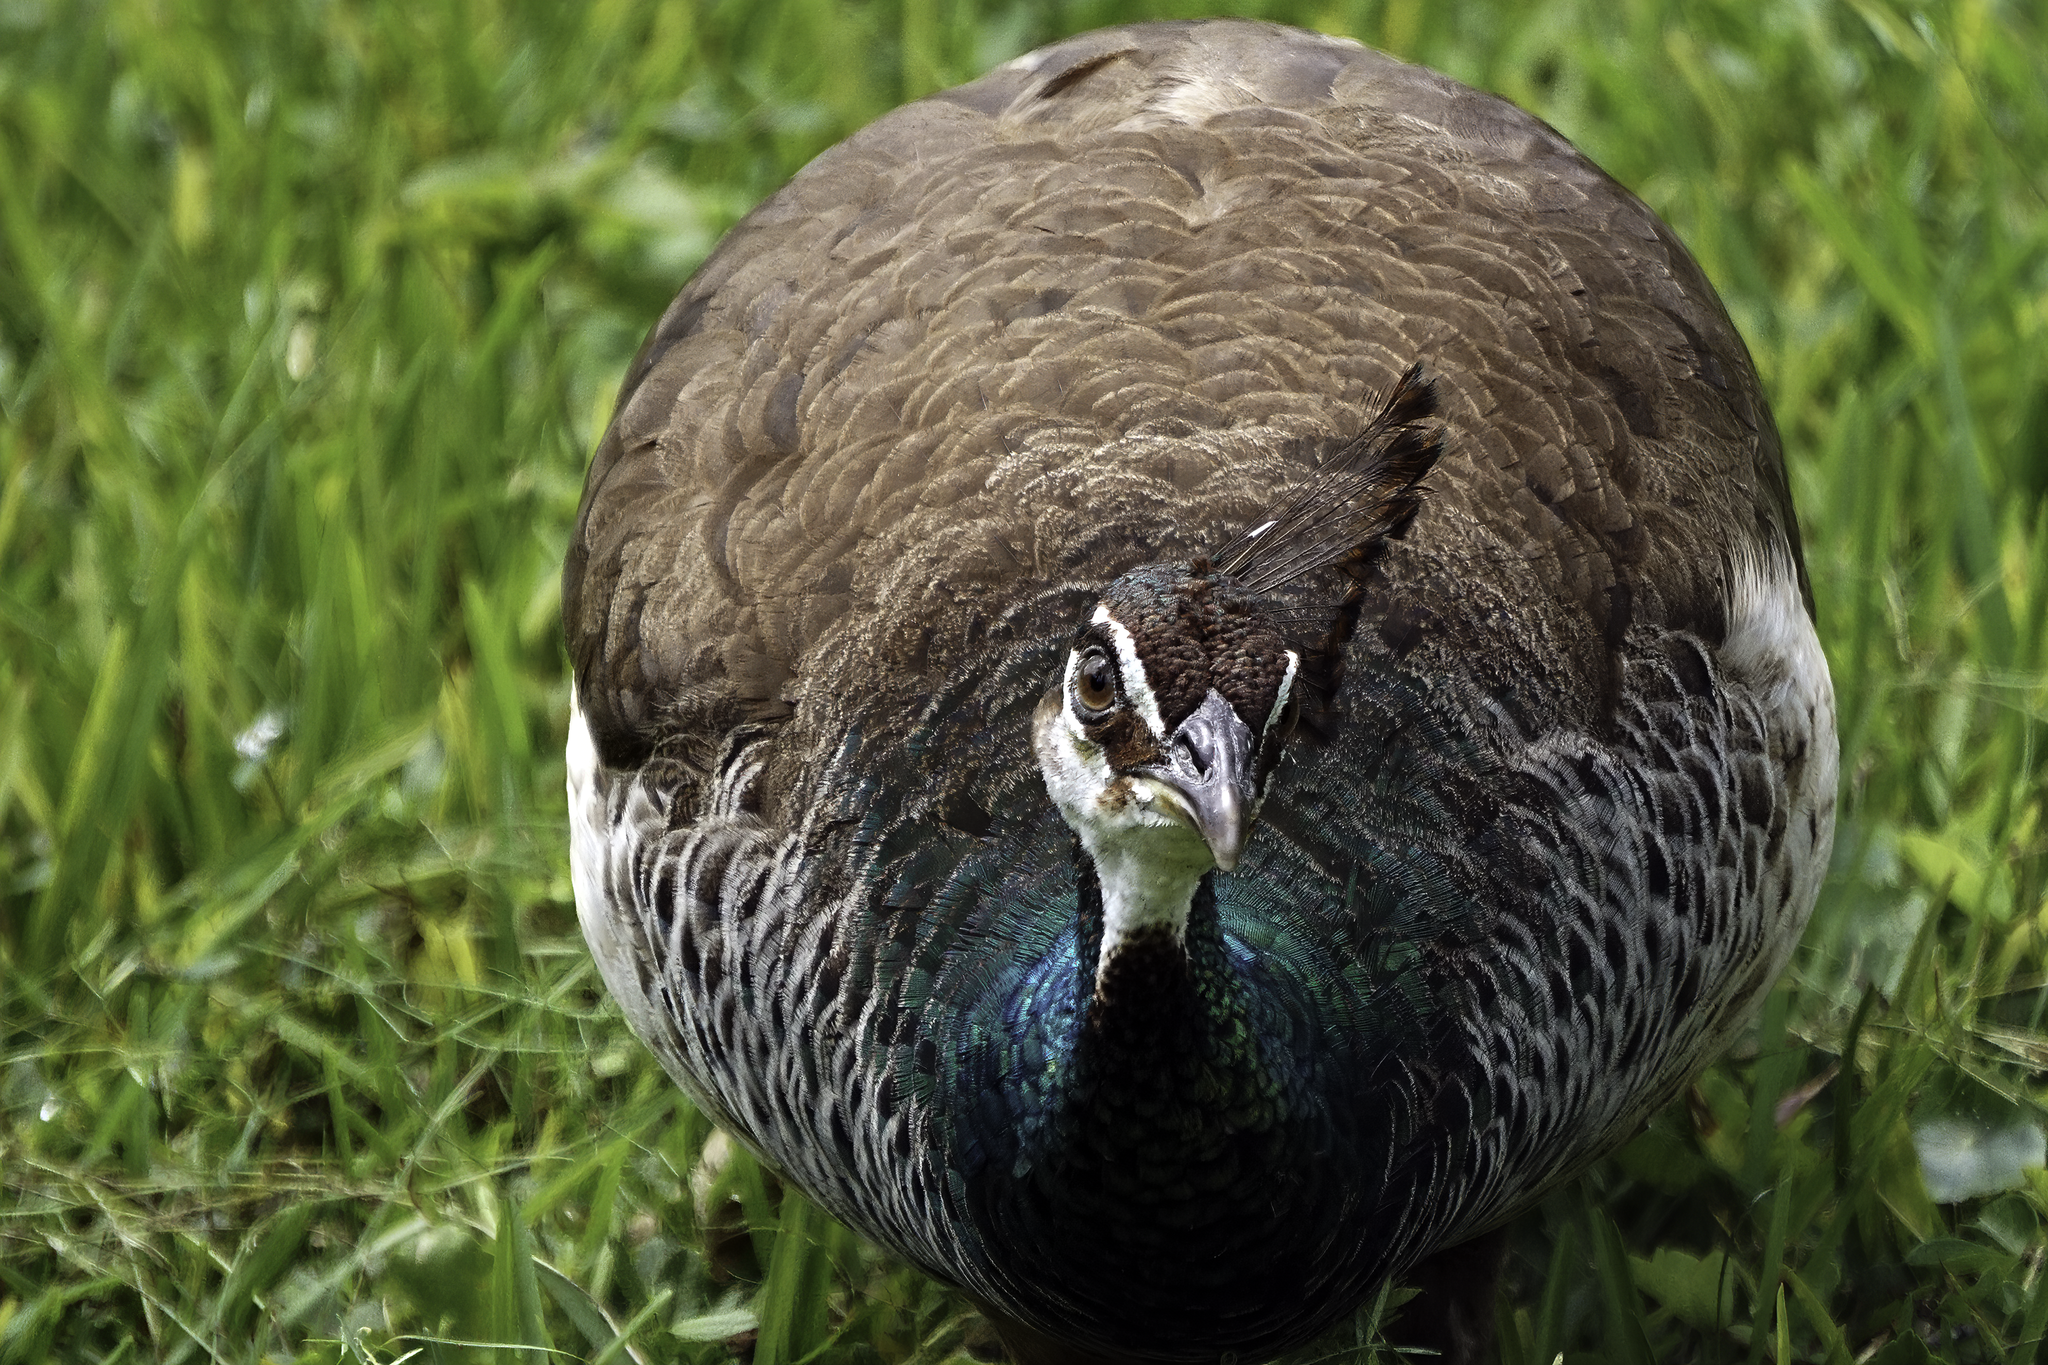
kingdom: Animalia
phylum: Chordata
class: Aves
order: Galliformes
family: Phasianidae
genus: Pavo
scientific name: Pavo cristatus
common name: Indian peafowl
